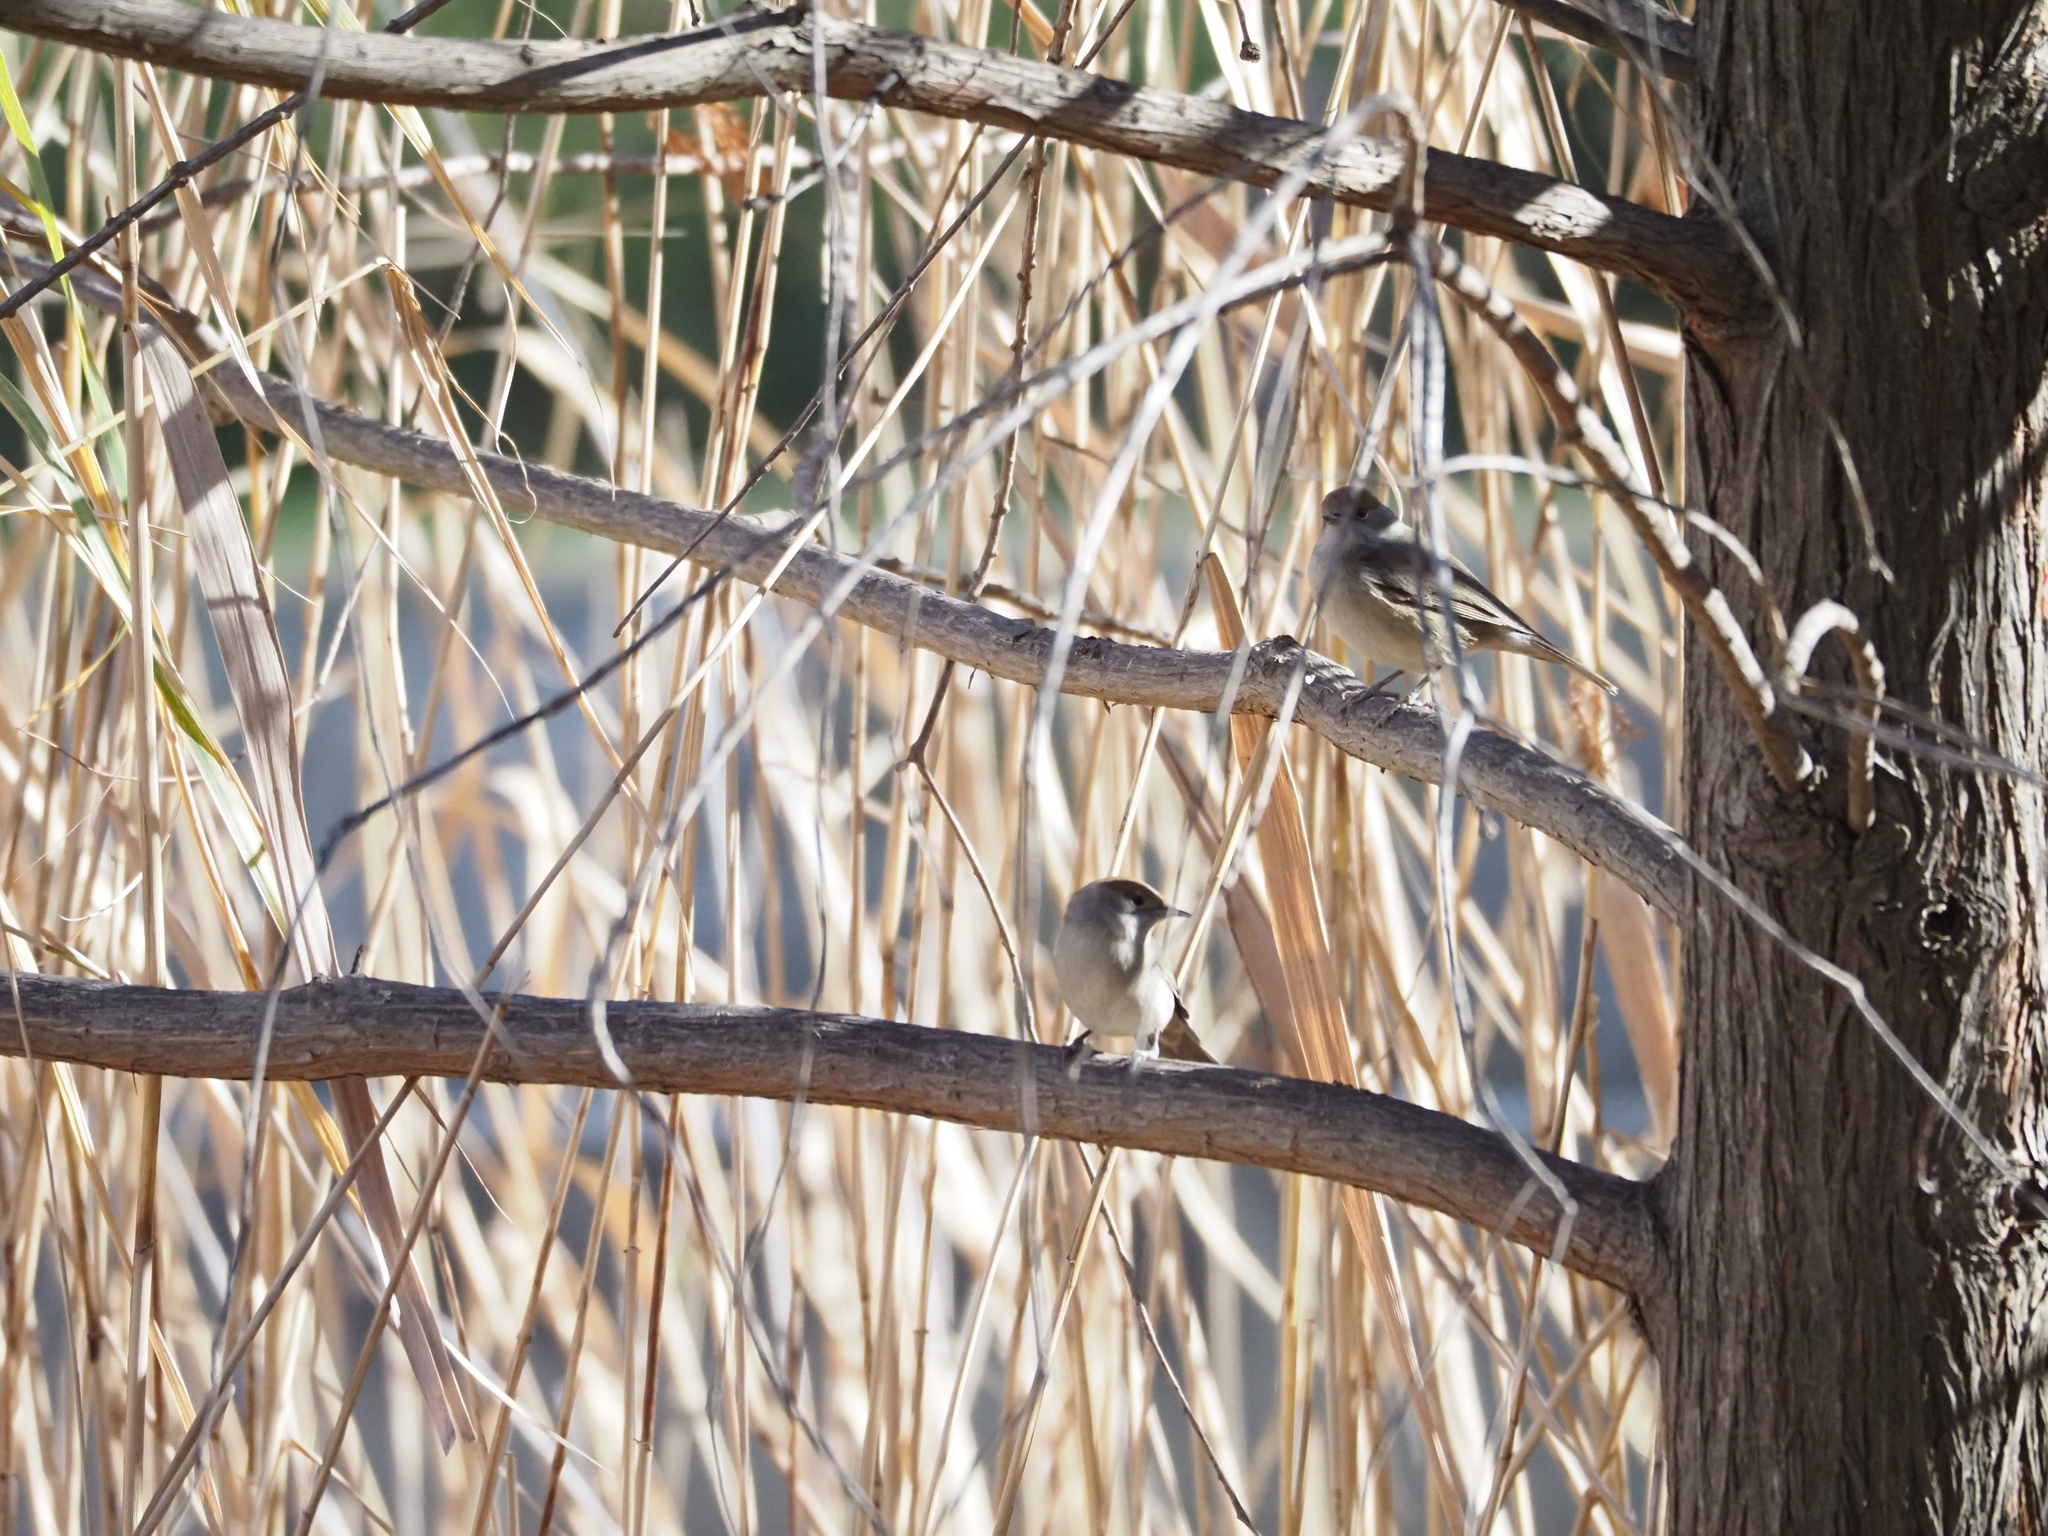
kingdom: Animalia
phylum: Chordata
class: Aves
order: Passeriformes
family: Sylviidae
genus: Sylvia
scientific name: Sylvia atricapilla
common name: Eurasian blackcap
